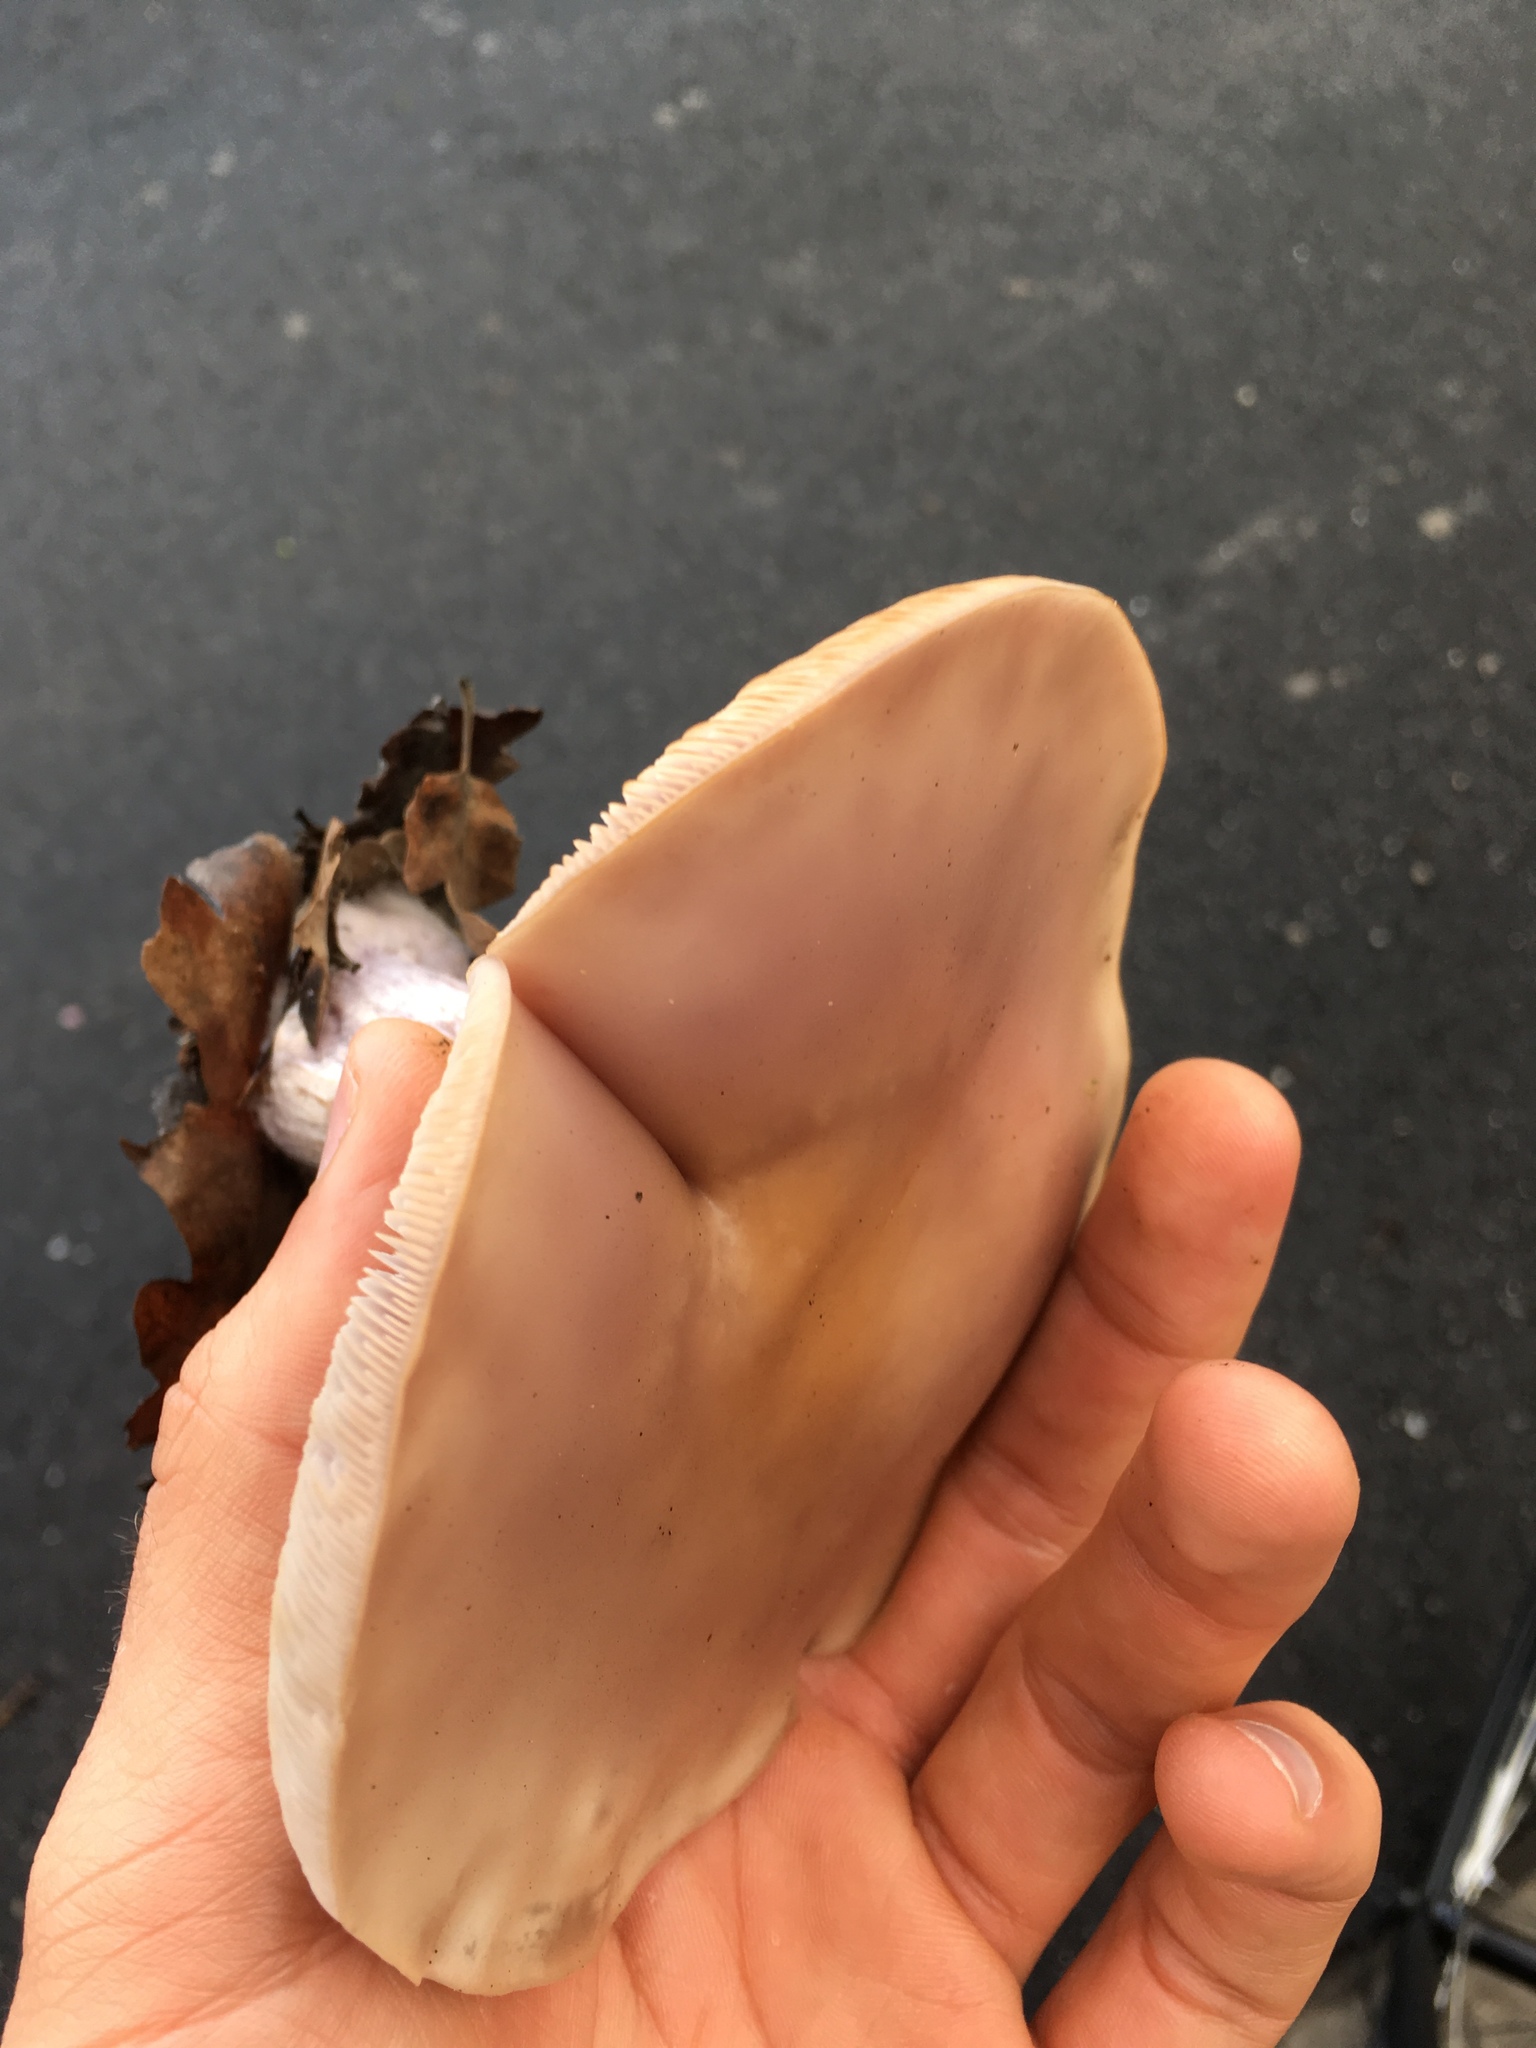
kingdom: Fungi
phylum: Basidiomycota
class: Agaricomycetes
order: Agaricales
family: Tricholomataceae
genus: Collybia
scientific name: Collybia
